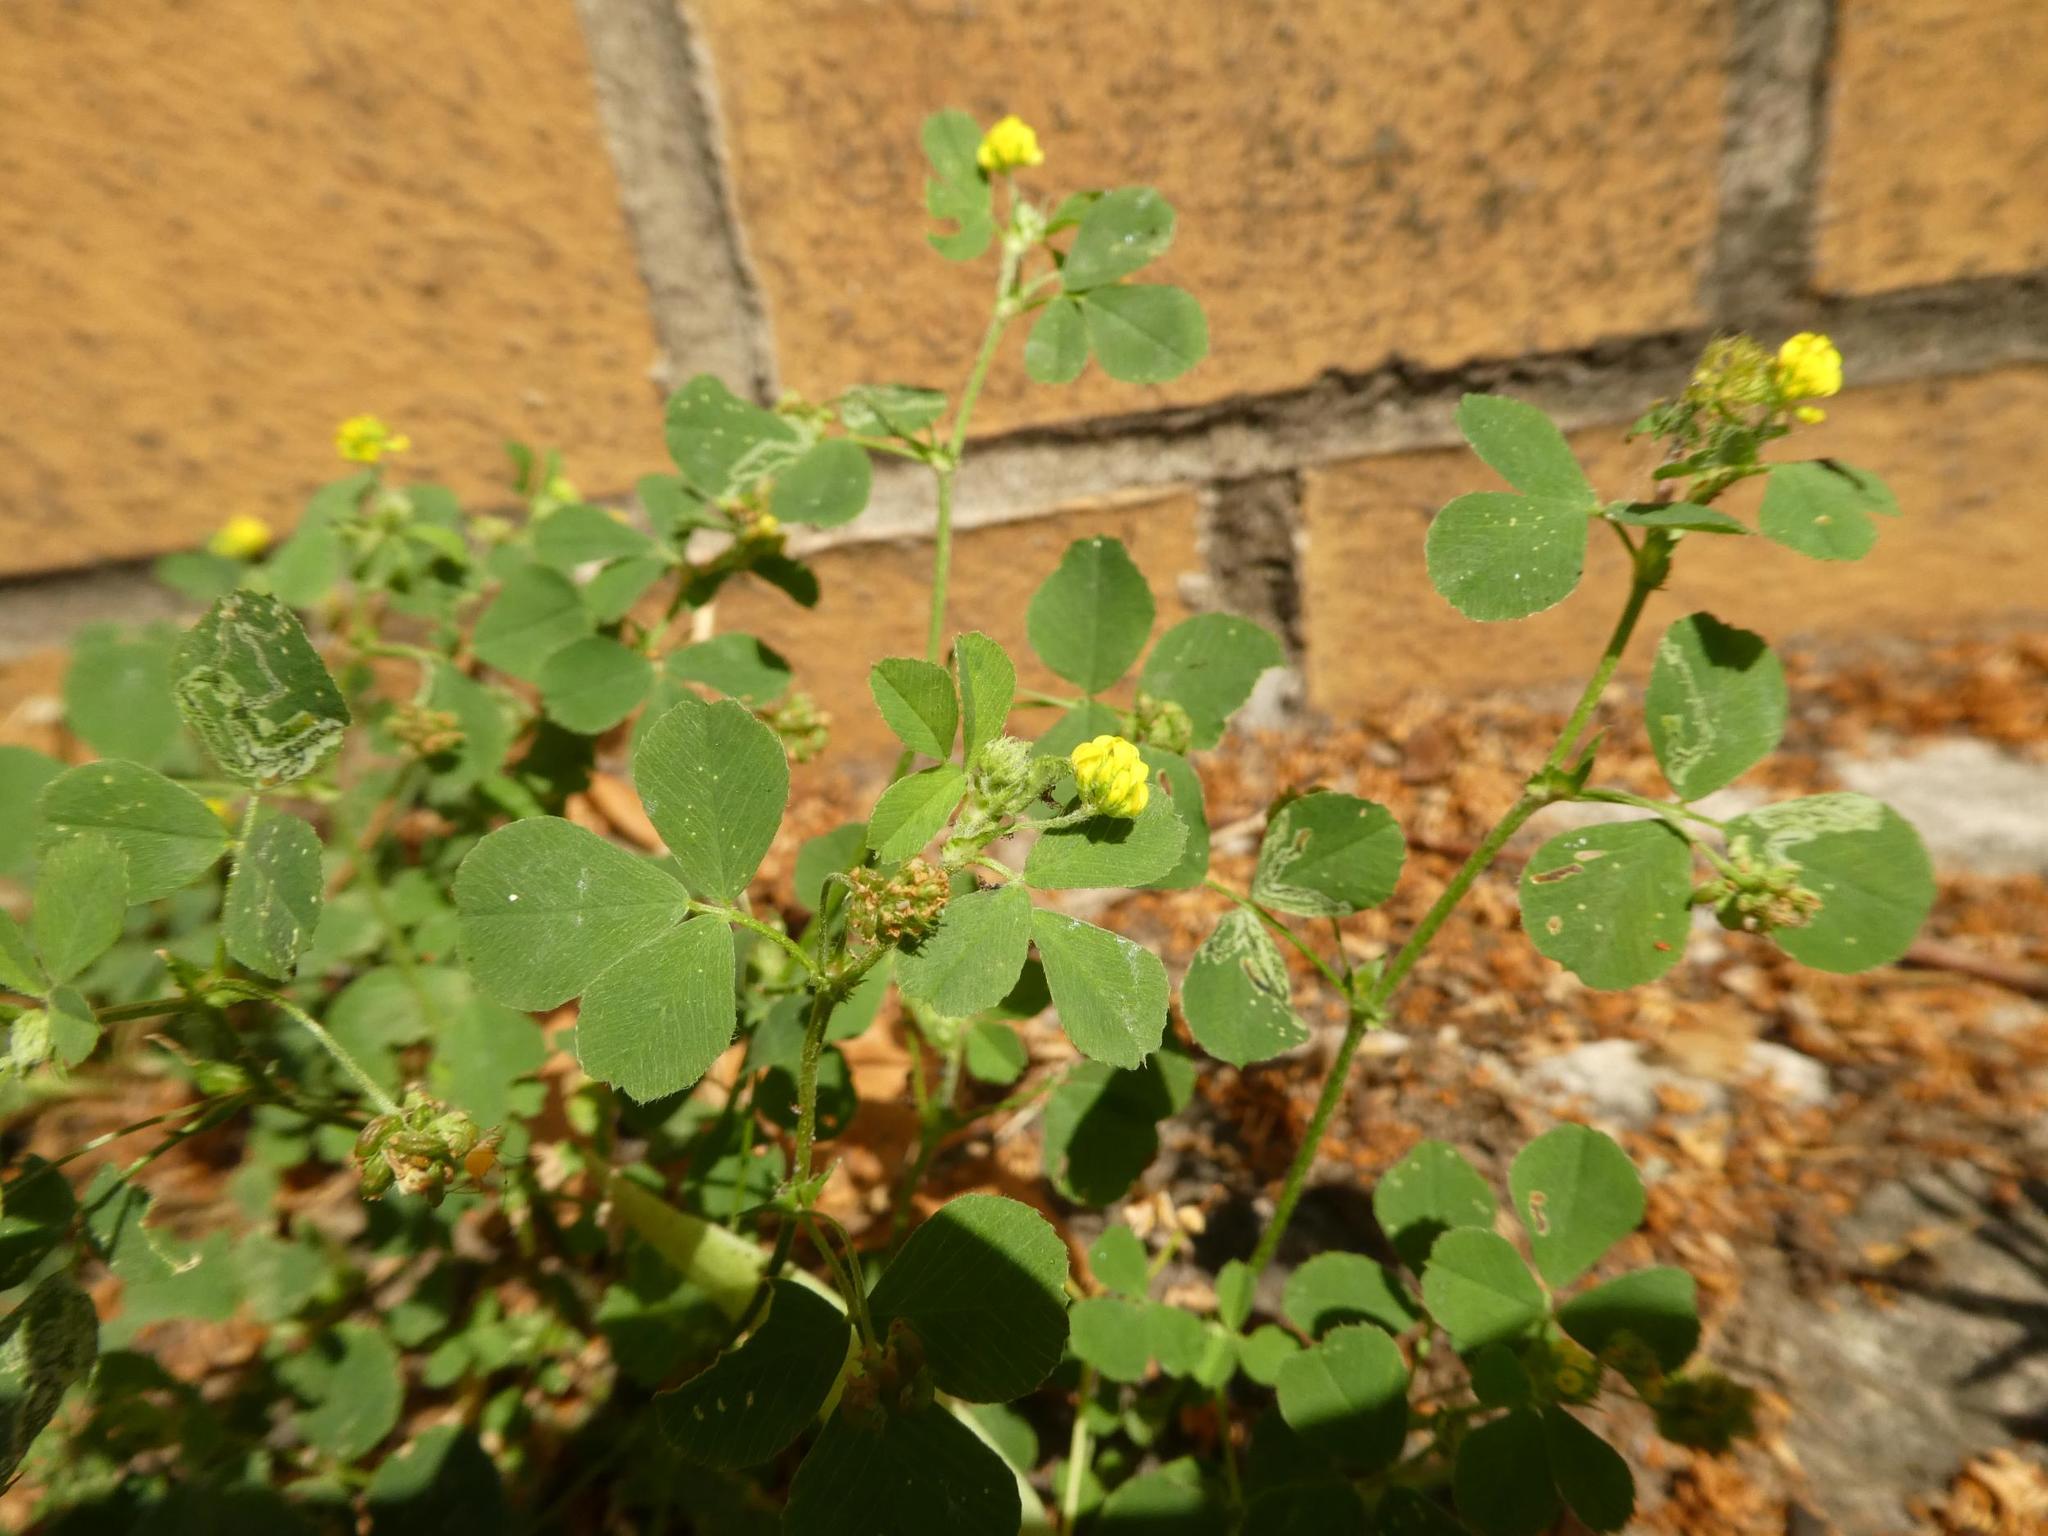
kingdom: Plantae
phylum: Tracheophyta
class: Magnoliopsida
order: Fabales
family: Fabaceae
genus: Medicago
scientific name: Medicago lupulina
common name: Black medick
